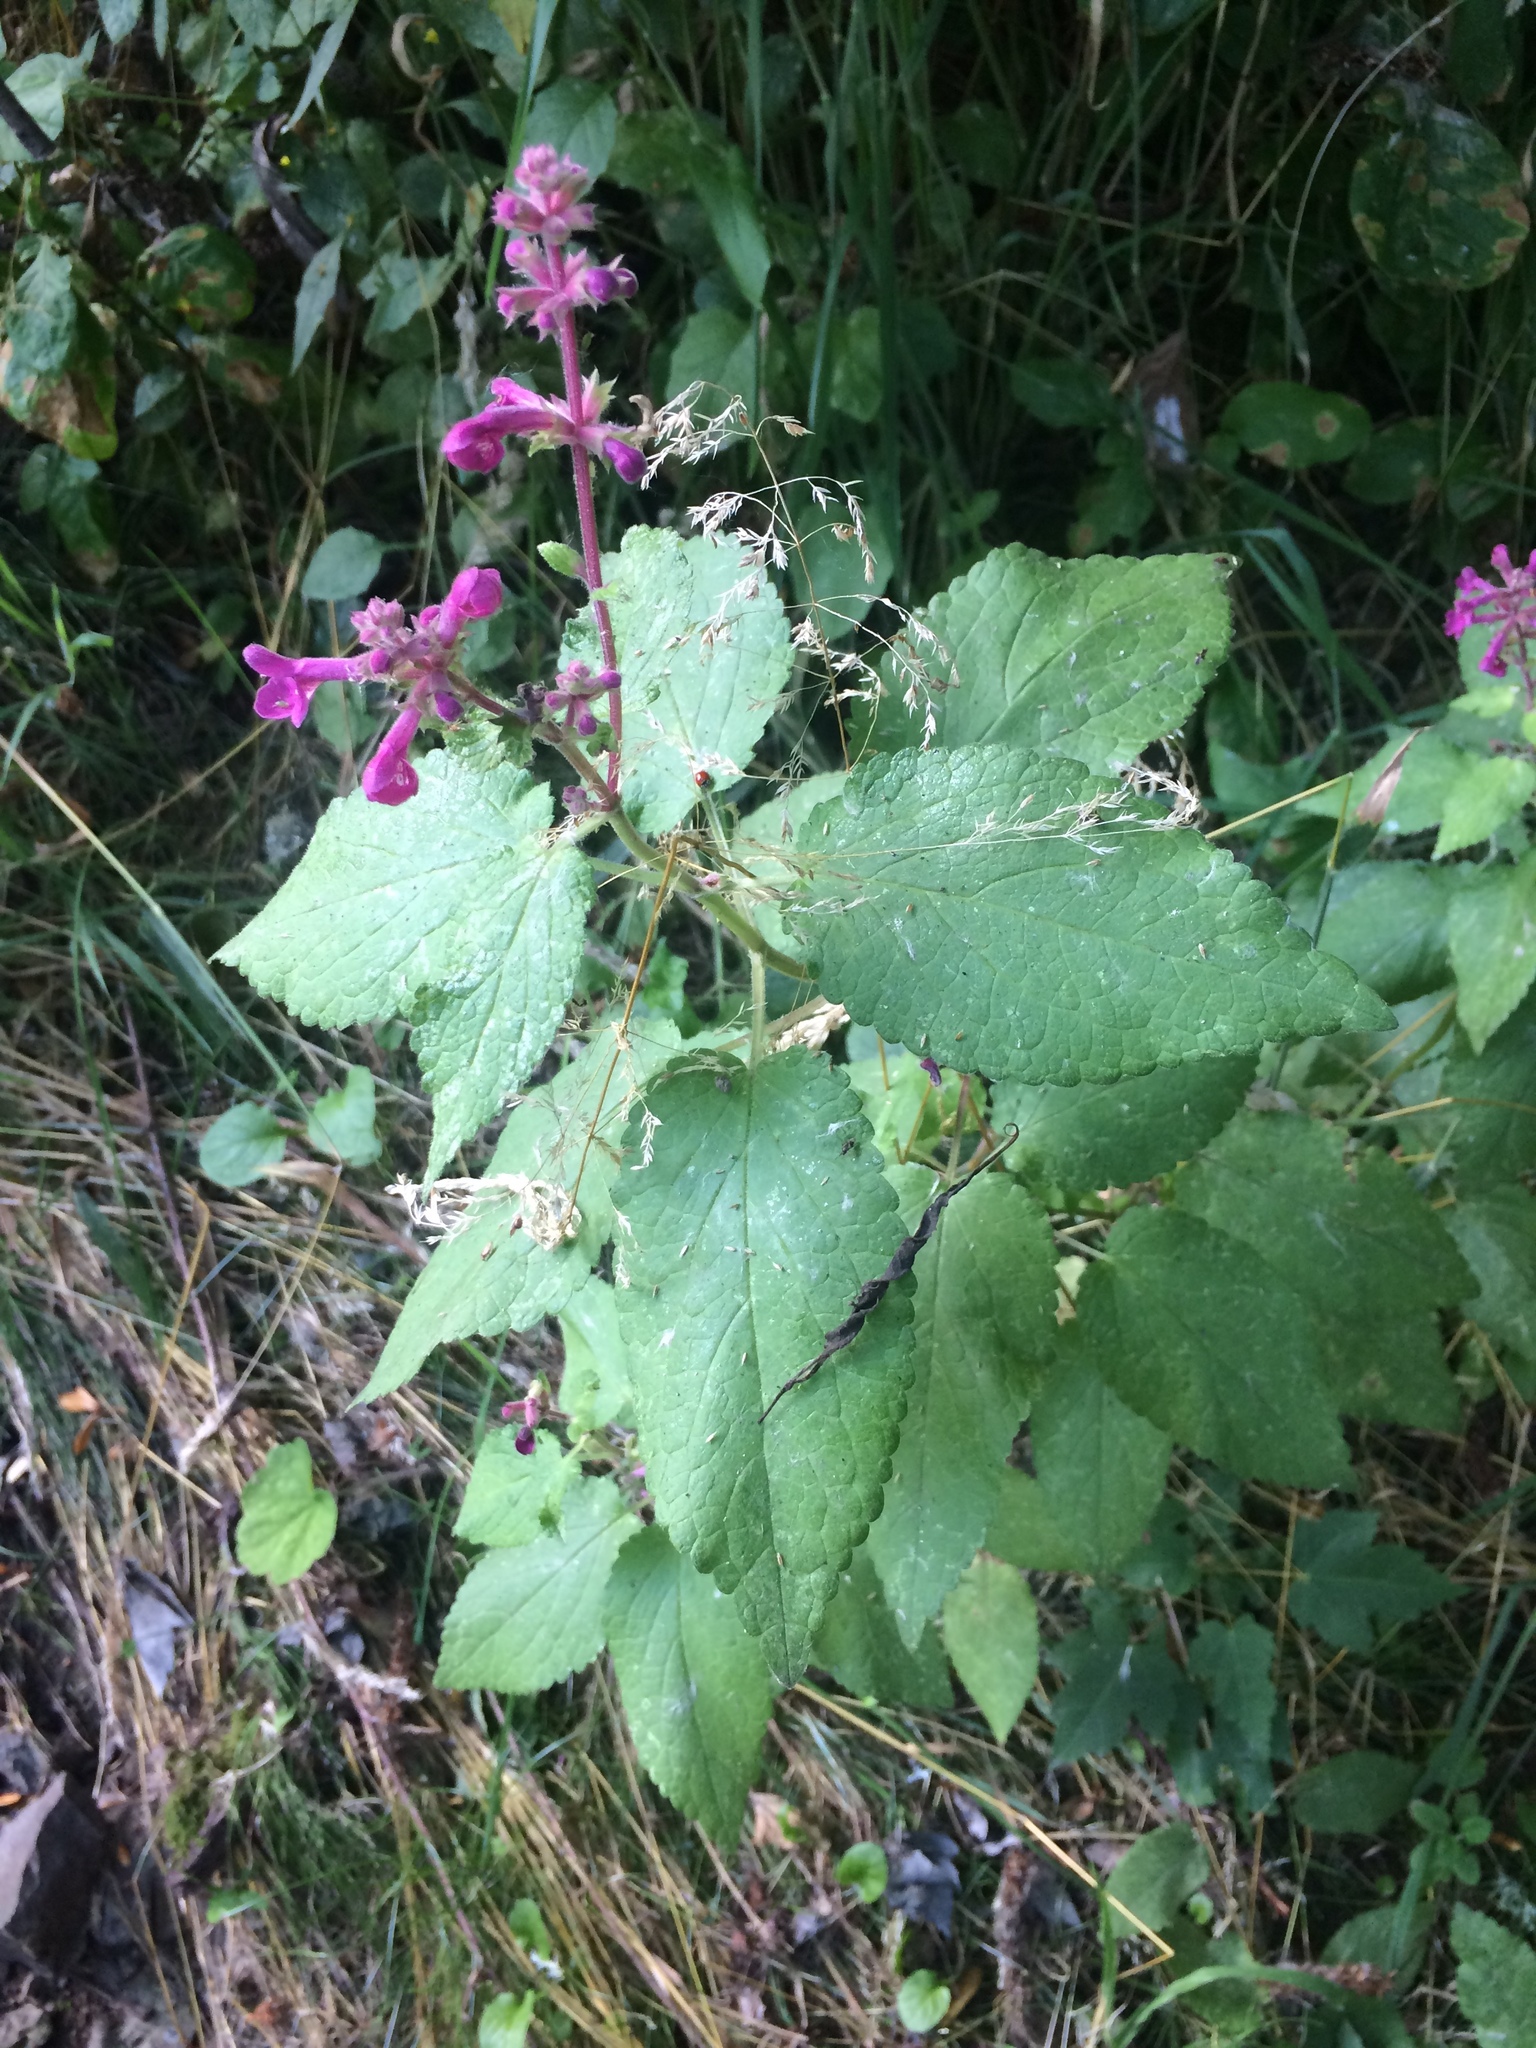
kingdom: Plantae
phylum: Tracheophyta
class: Magnoliopsida
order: Lamiales
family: Lamiaceae
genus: Stachys
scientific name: Stachys chamissonis
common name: Coastal hedge-nettle
